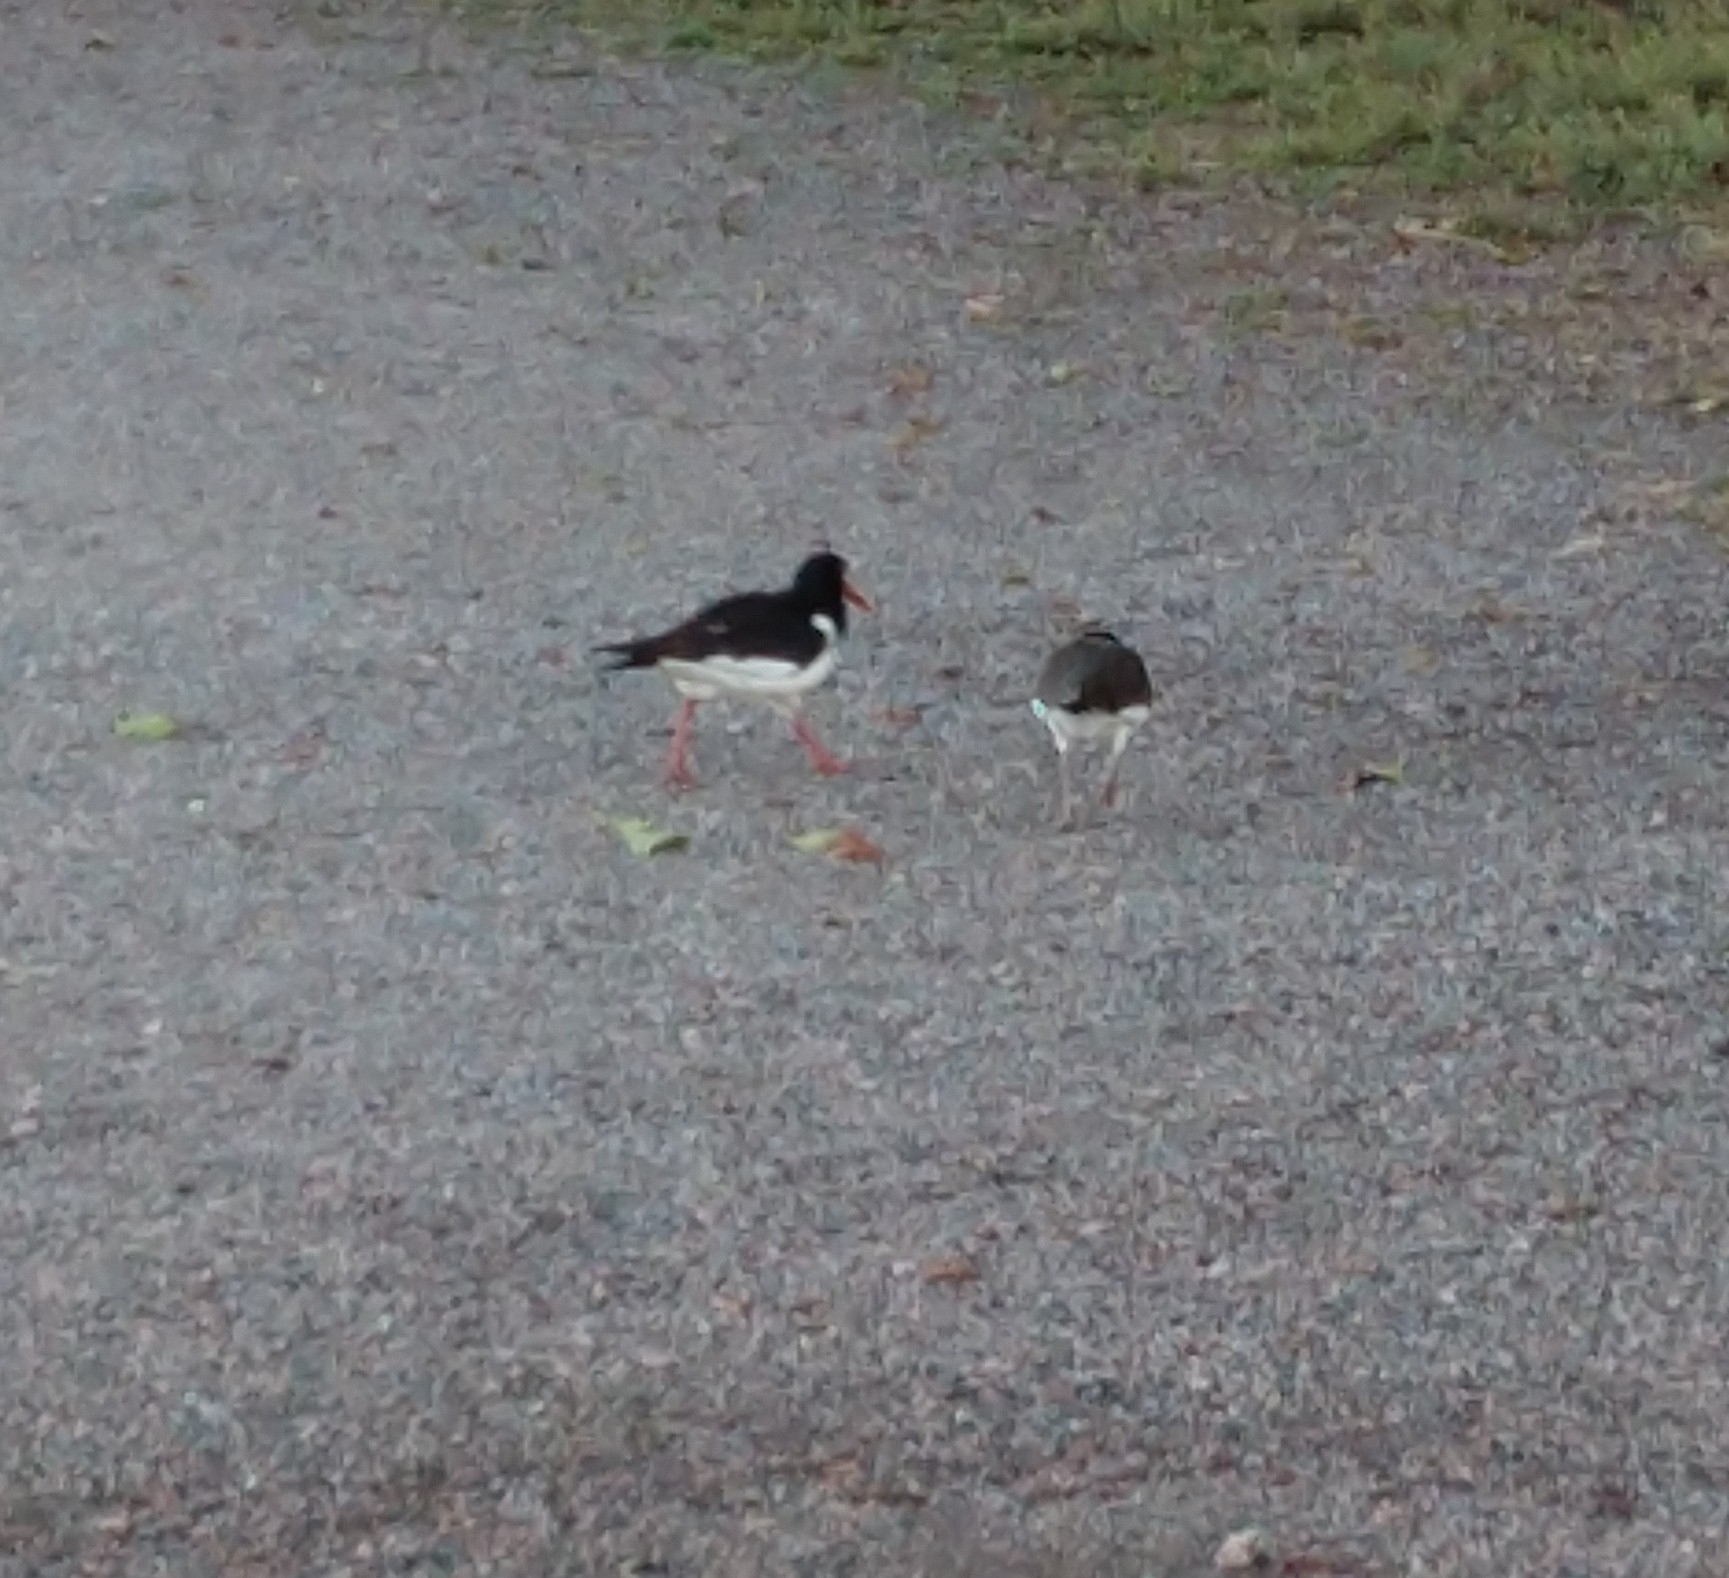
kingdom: Animalia
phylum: Chordata
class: Aves
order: Charadriiformes
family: Haematopodidae
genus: Haematopus
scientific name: Haematopus ostralegus
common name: Eurasian oystercatcher
